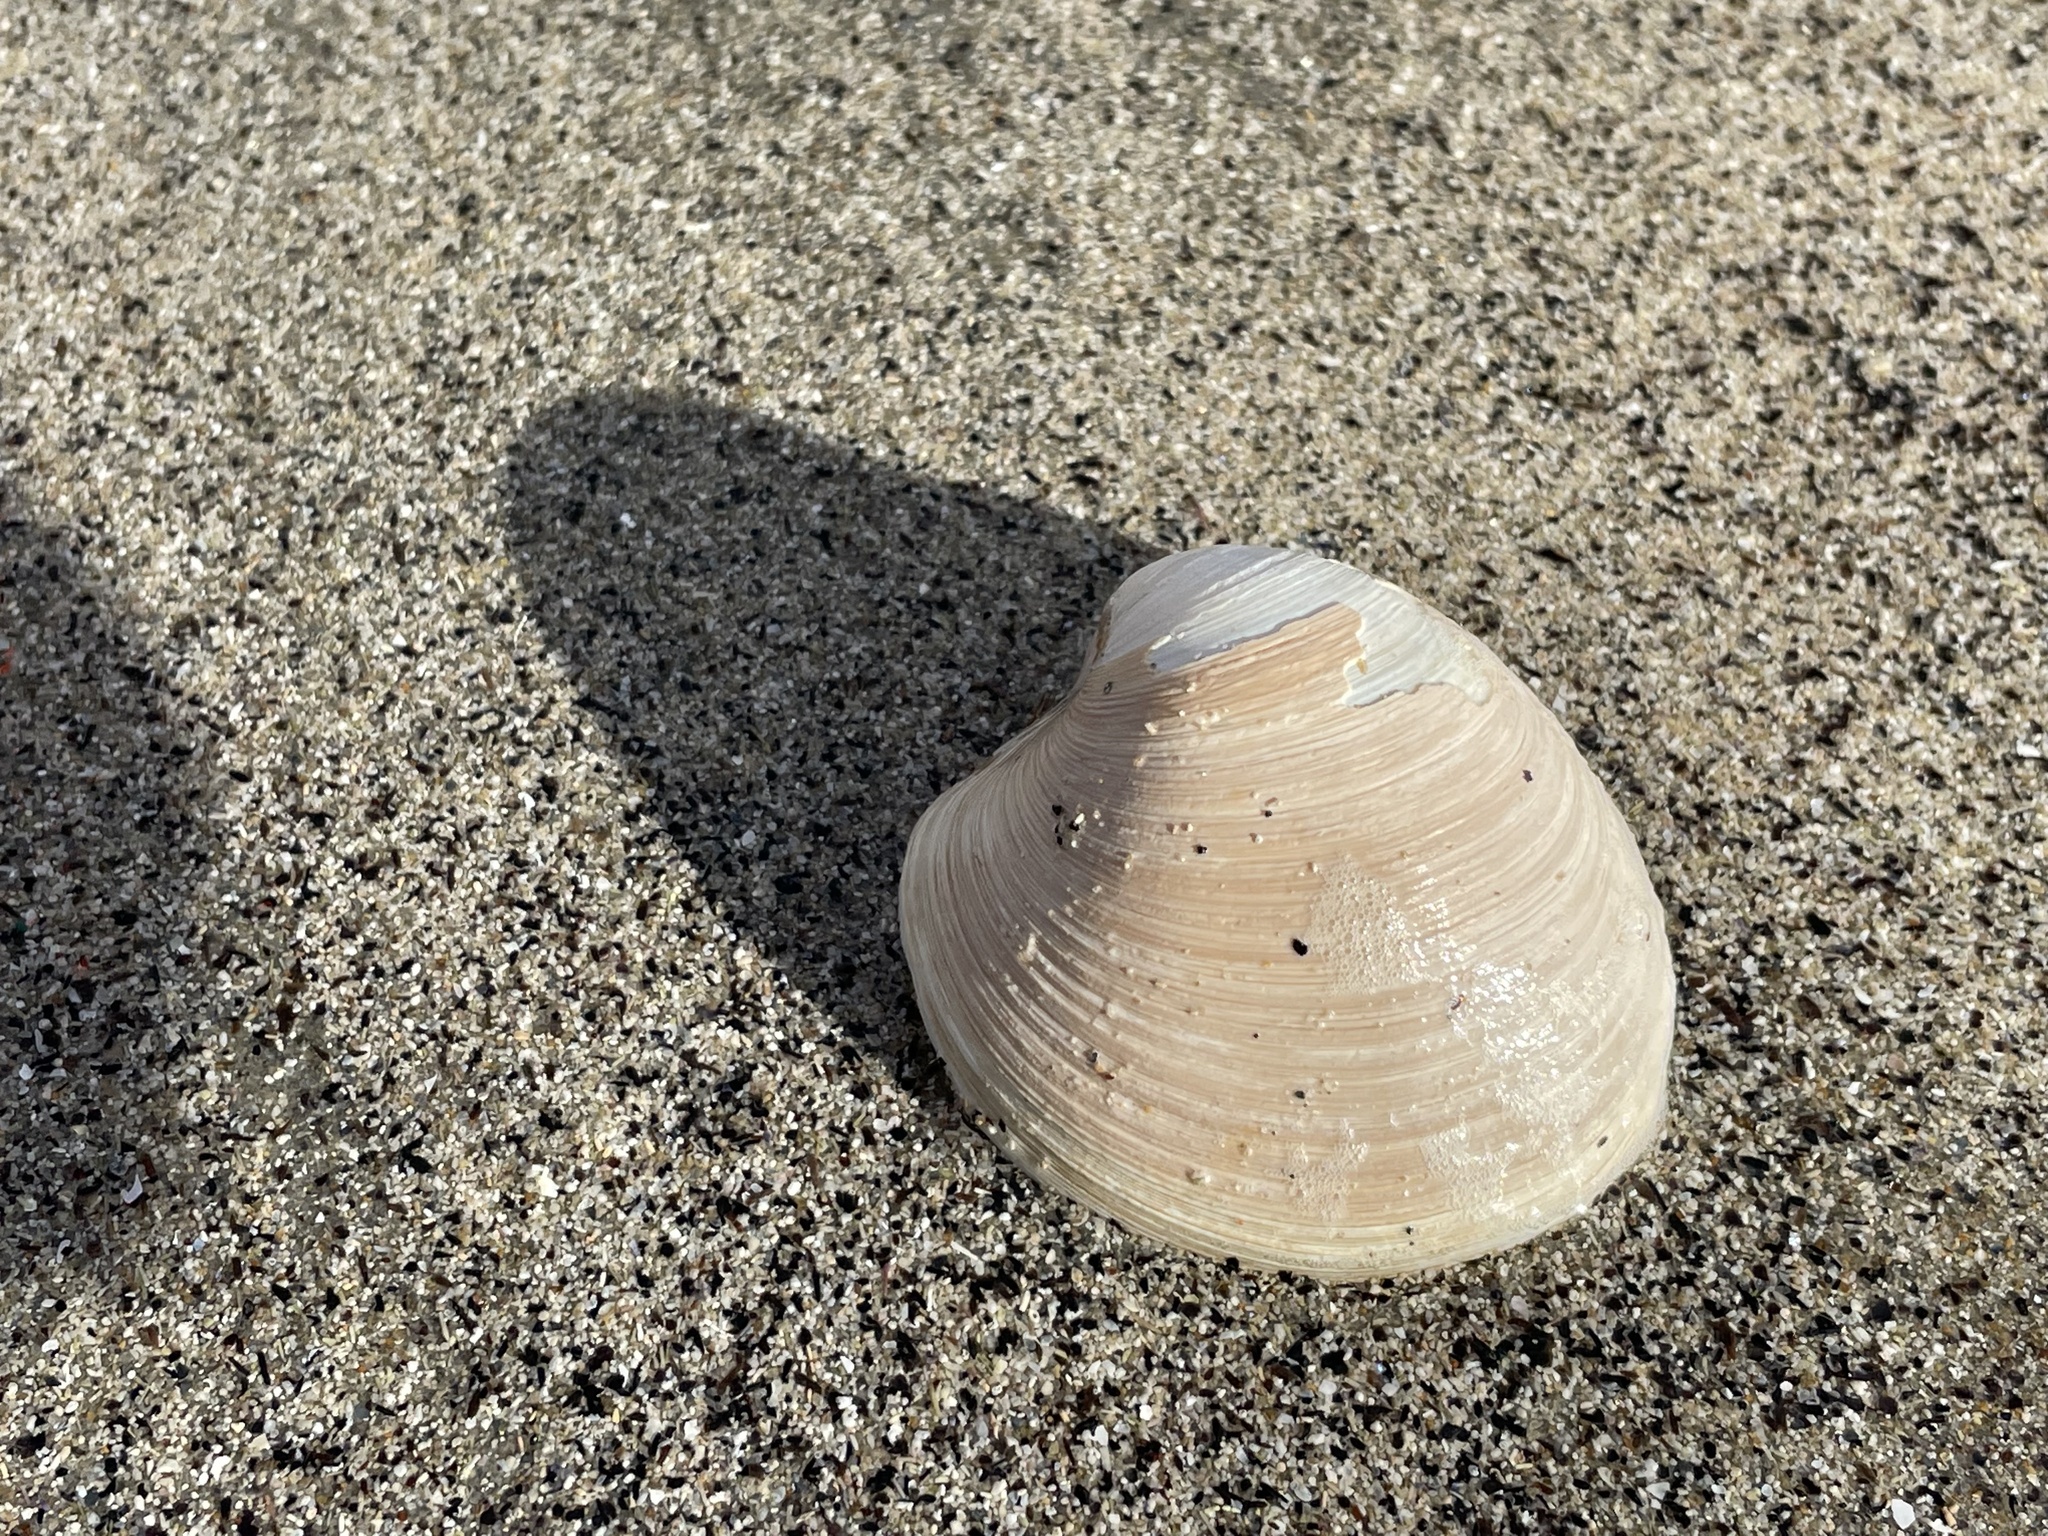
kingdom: Animalia
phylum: Mollusca
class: Bivalvia
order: Venerida
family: Veneridae
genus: Agriopoma
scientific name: Agriopoma morrhuanum
